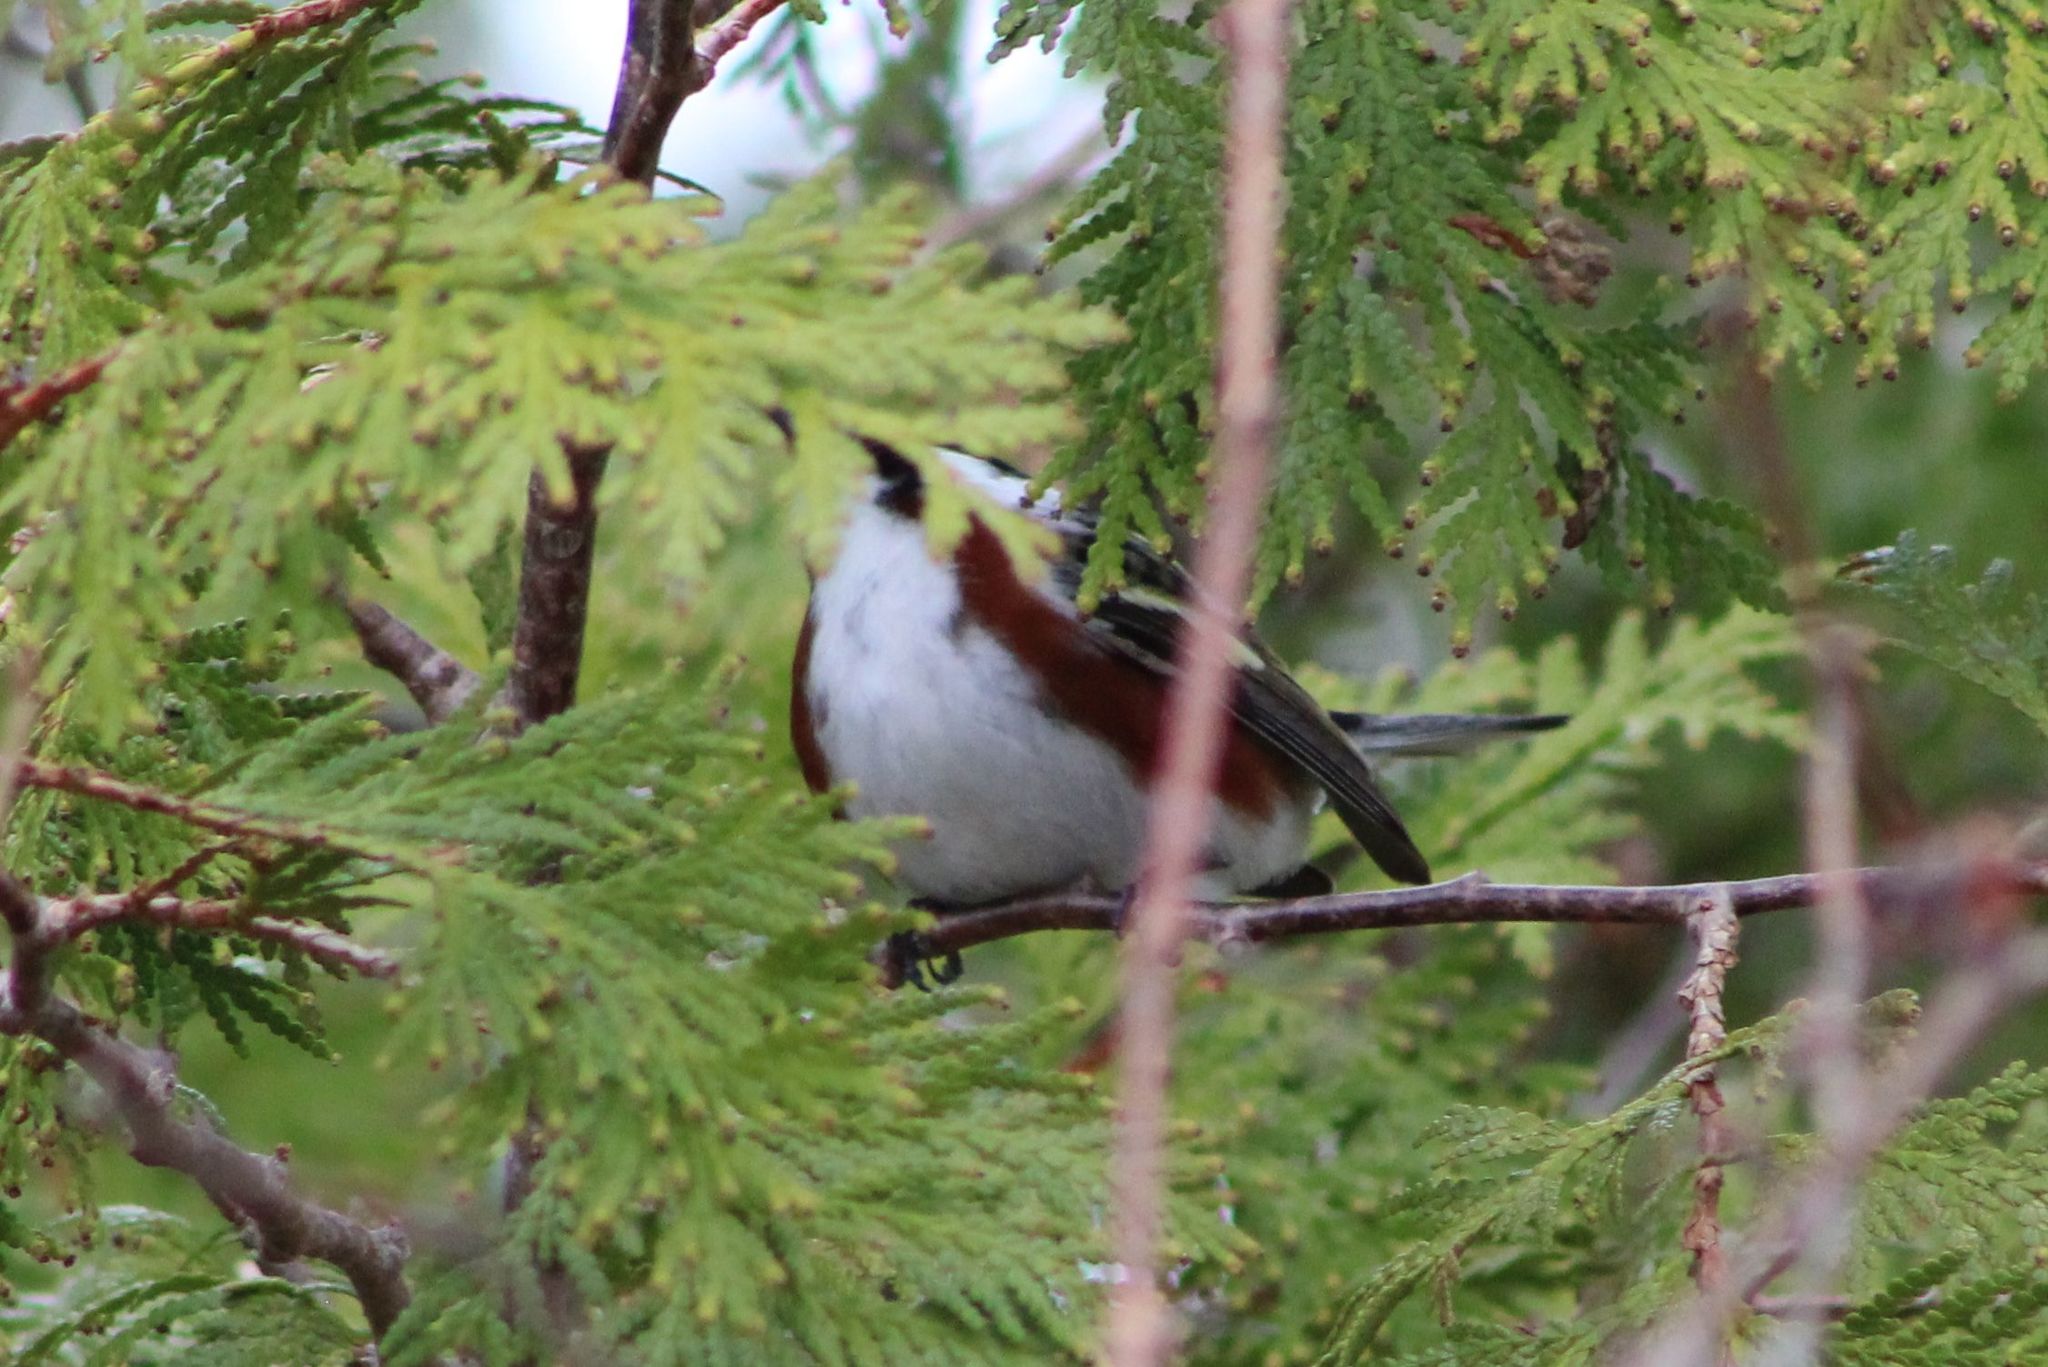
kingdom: Animalia
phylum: Chordata
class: Aves
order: Passeriformes
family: Parulidae
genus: Setophaga
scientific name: Setophaga pensylvanica
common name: Chestnut-sided warbler
